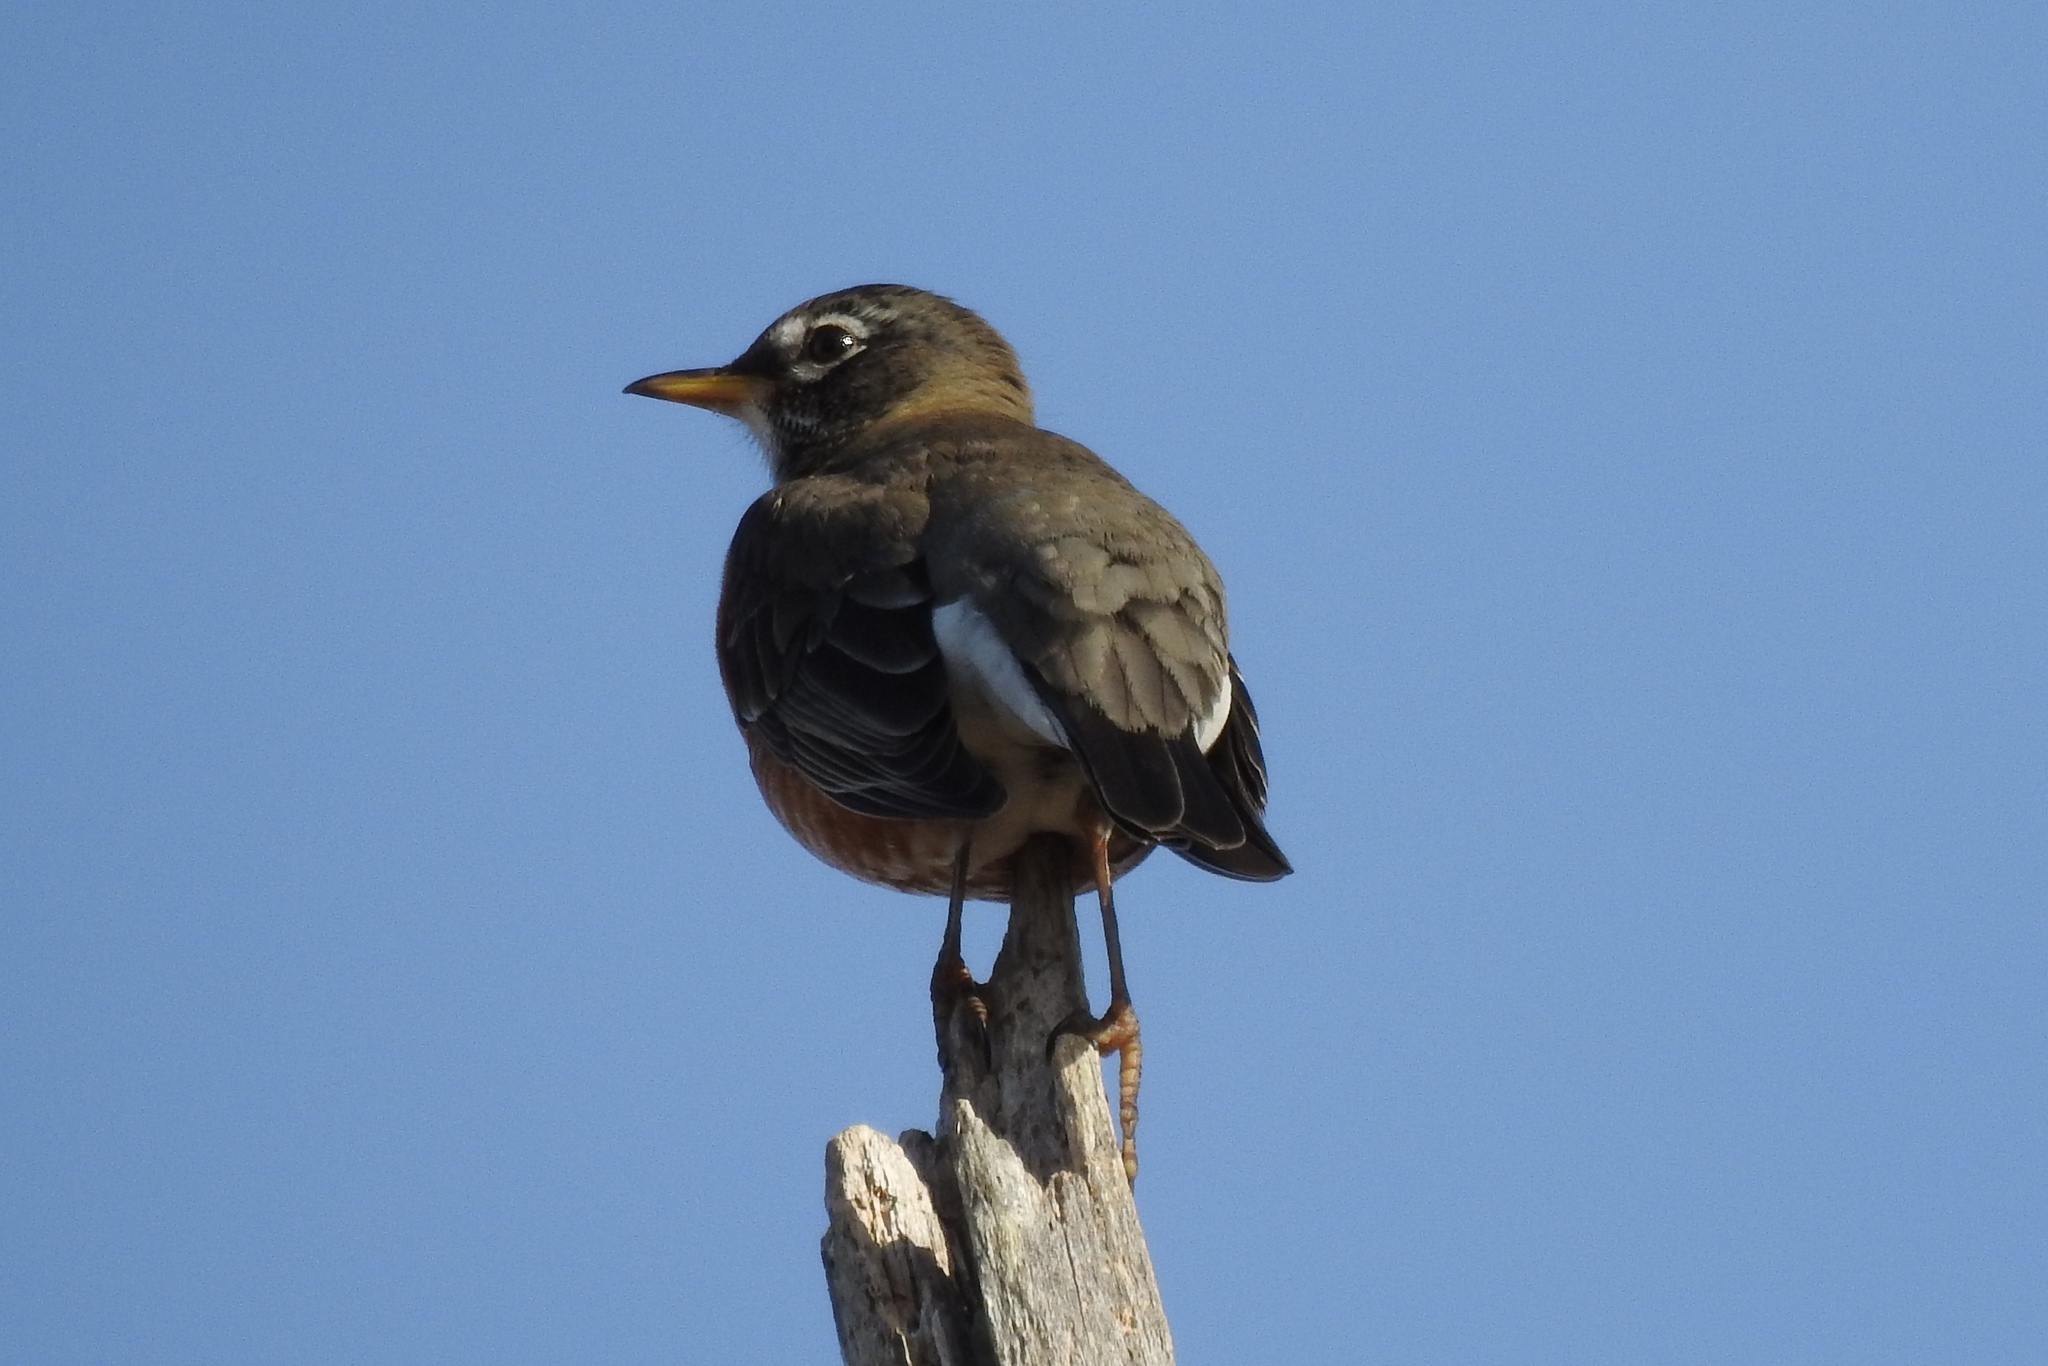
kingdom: Animalia
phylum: Chordata
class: Aves
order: Passeriformes
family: Turdidae
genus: Turdus
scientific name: Turdus migratorius
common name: American robin
